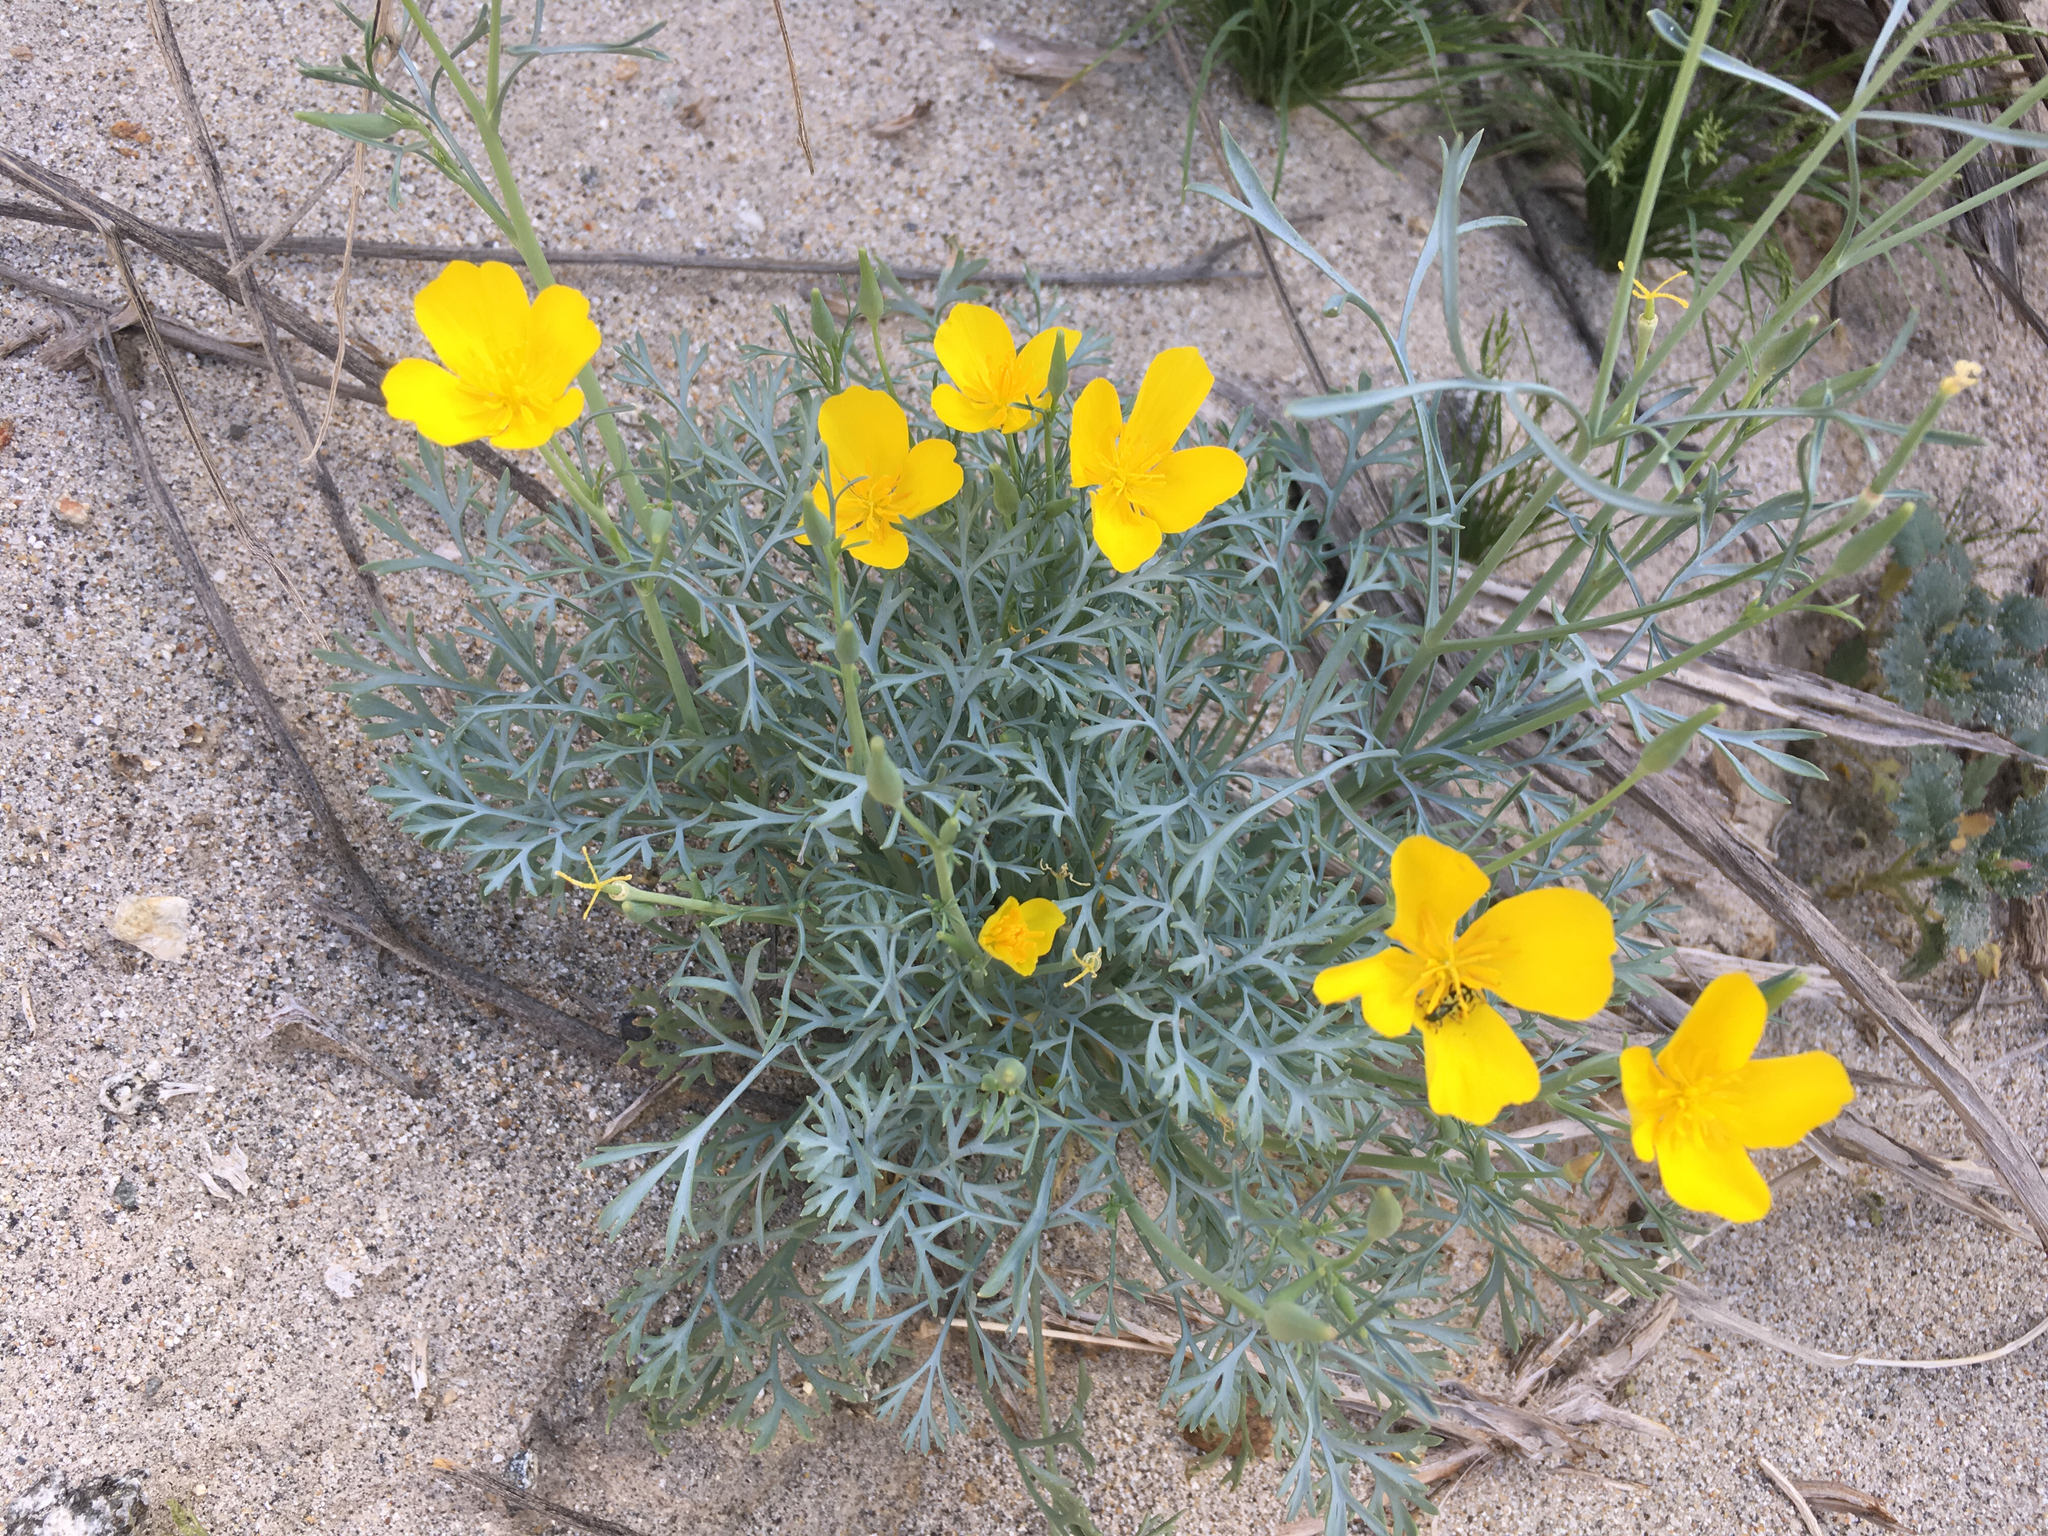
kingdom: Plantae
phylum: Tracheophyta
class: Magnoliopsida
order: Ranunculales
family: Papaveraceae
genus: Eschscholzia
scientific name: Eschscholzia parishii
